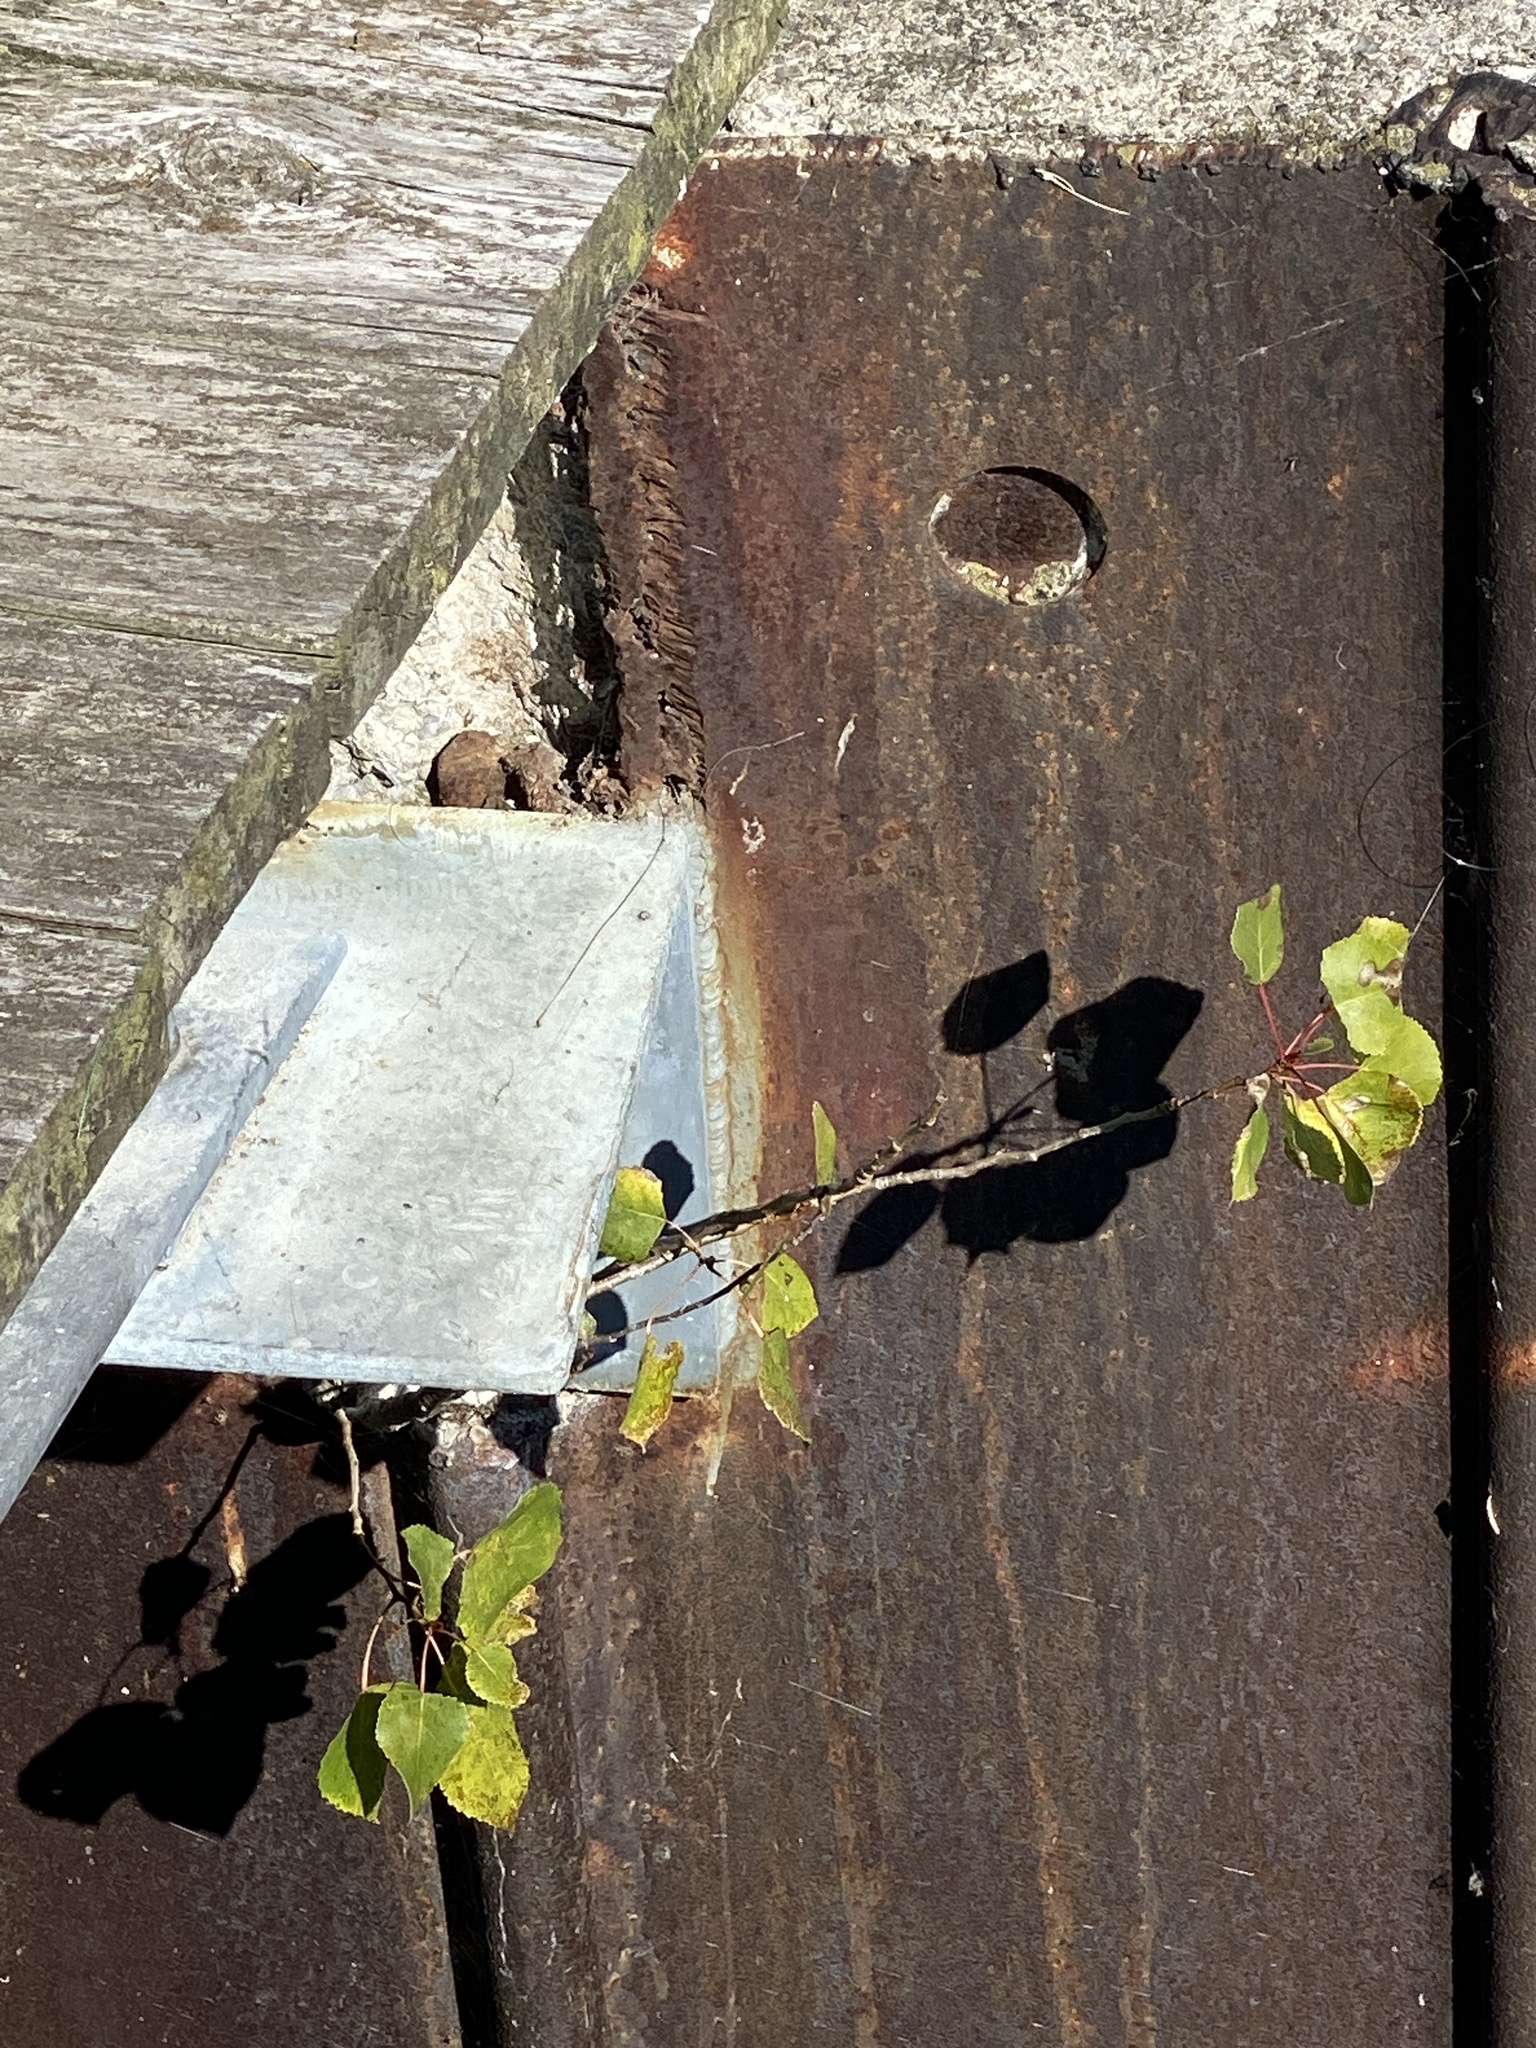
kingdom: Plantae
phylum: Tracheophyta
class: Magnoliopsida
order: Malpighiales
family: Salicaceae
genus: Populus
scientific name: Populus deltoides
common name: Eastern cottonwood
